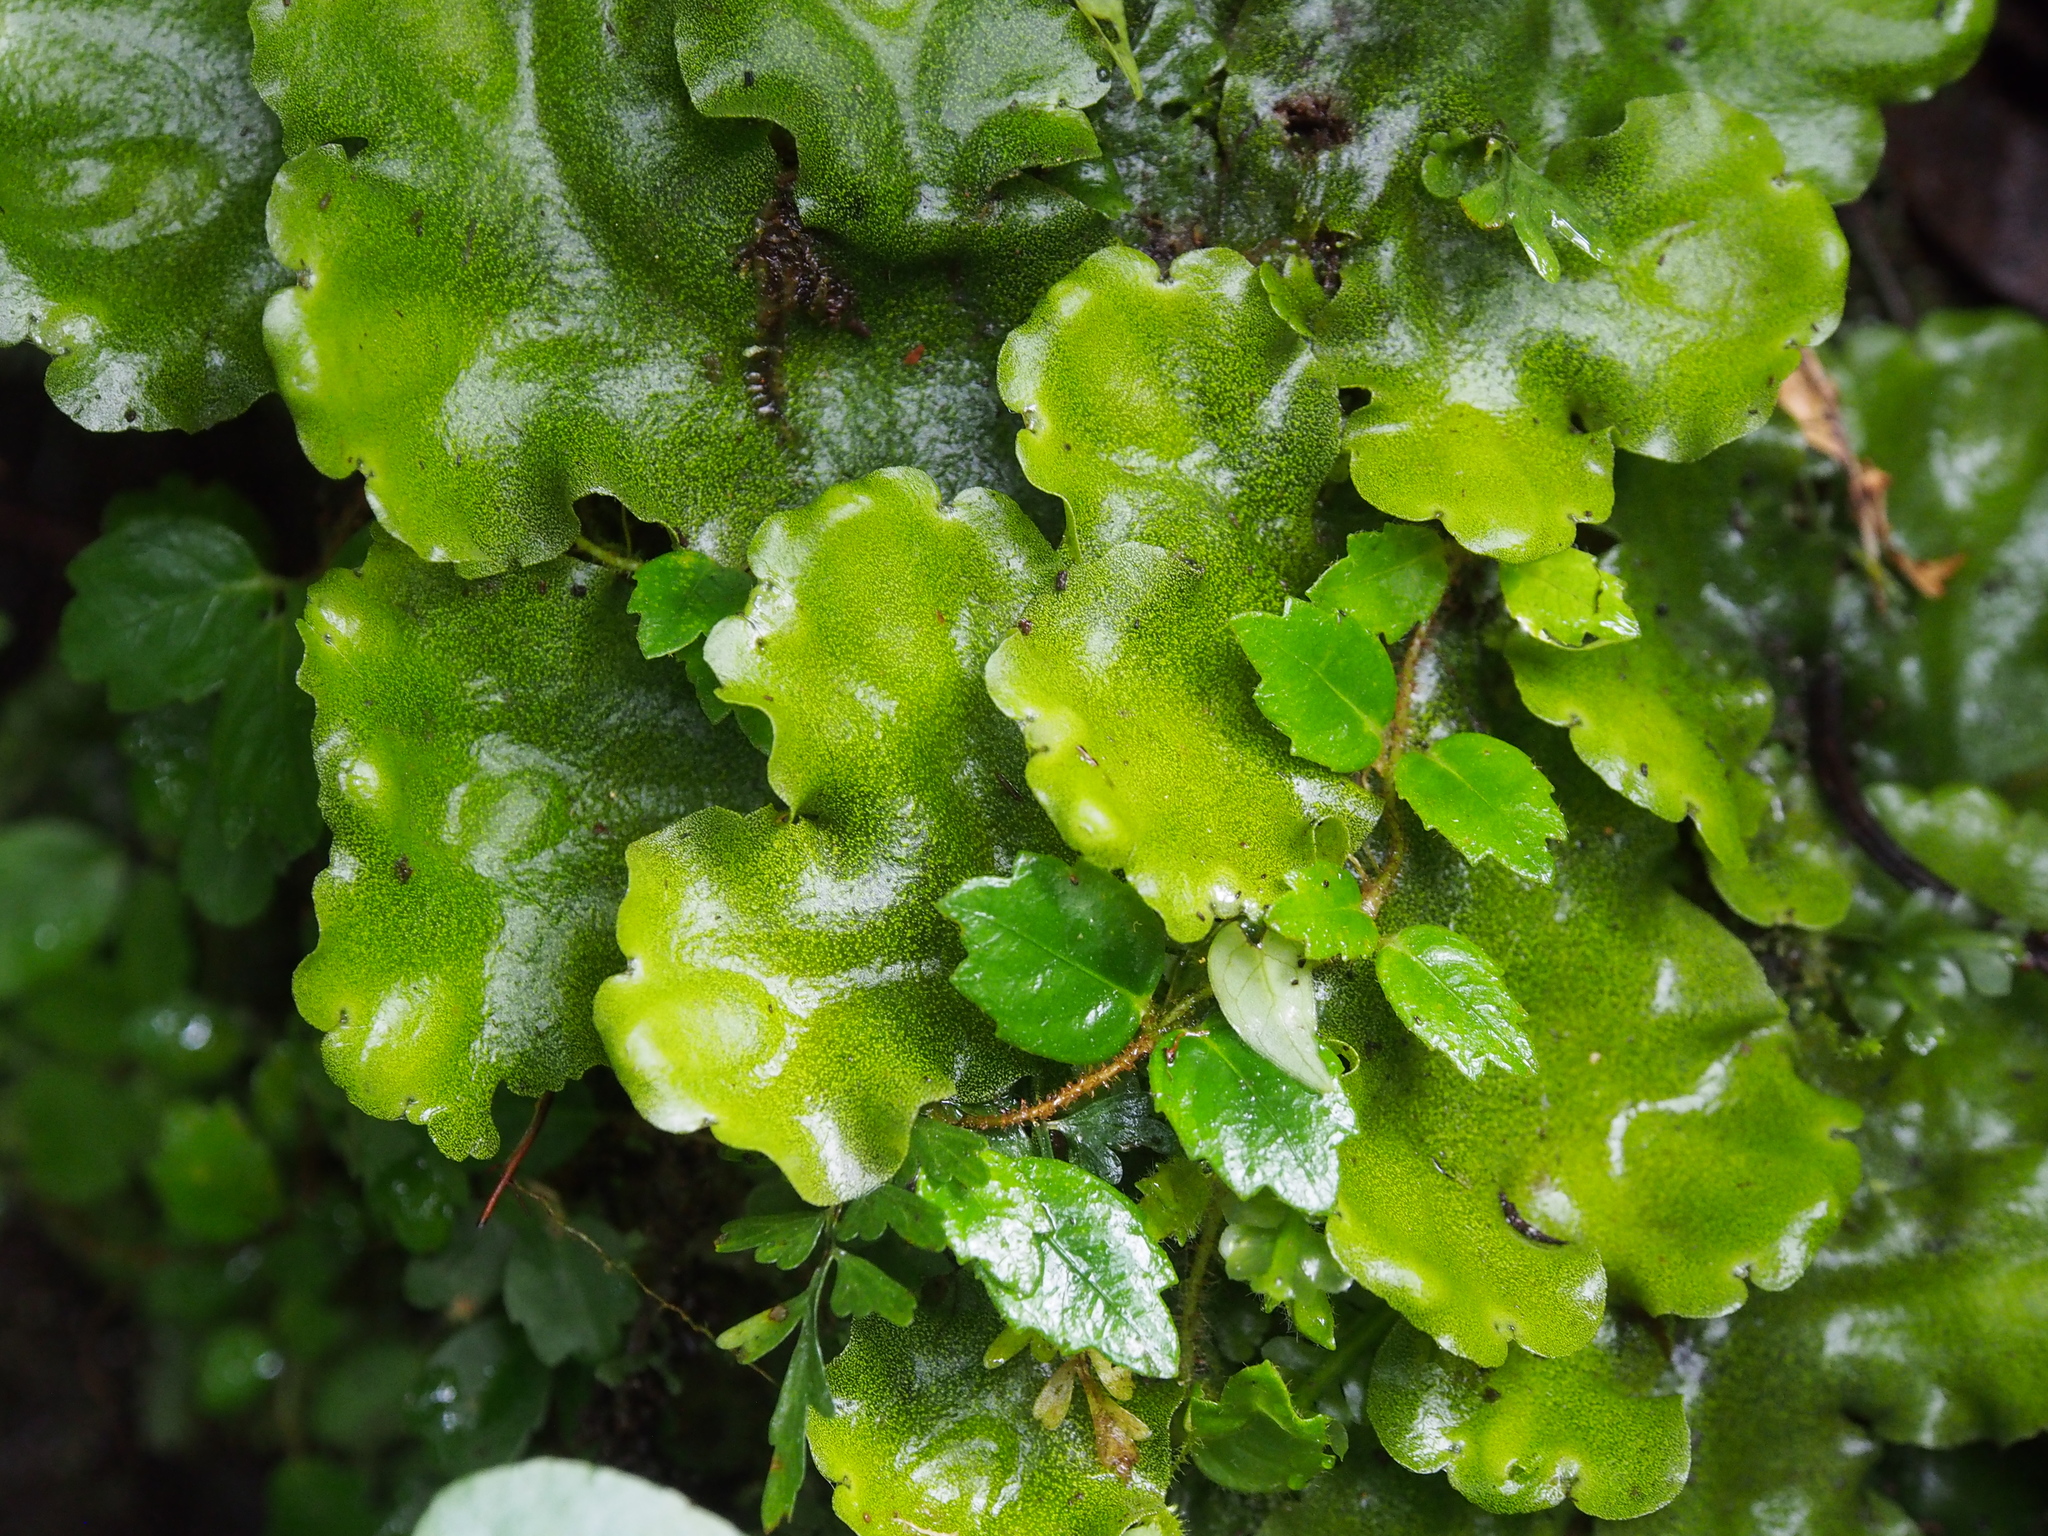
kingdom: Plantae
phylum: Marchantiophyta
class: Marchantiopsida
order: Marchantiales
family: Monocleaceae
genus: Monoclea
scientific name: Monoclea gottschei
